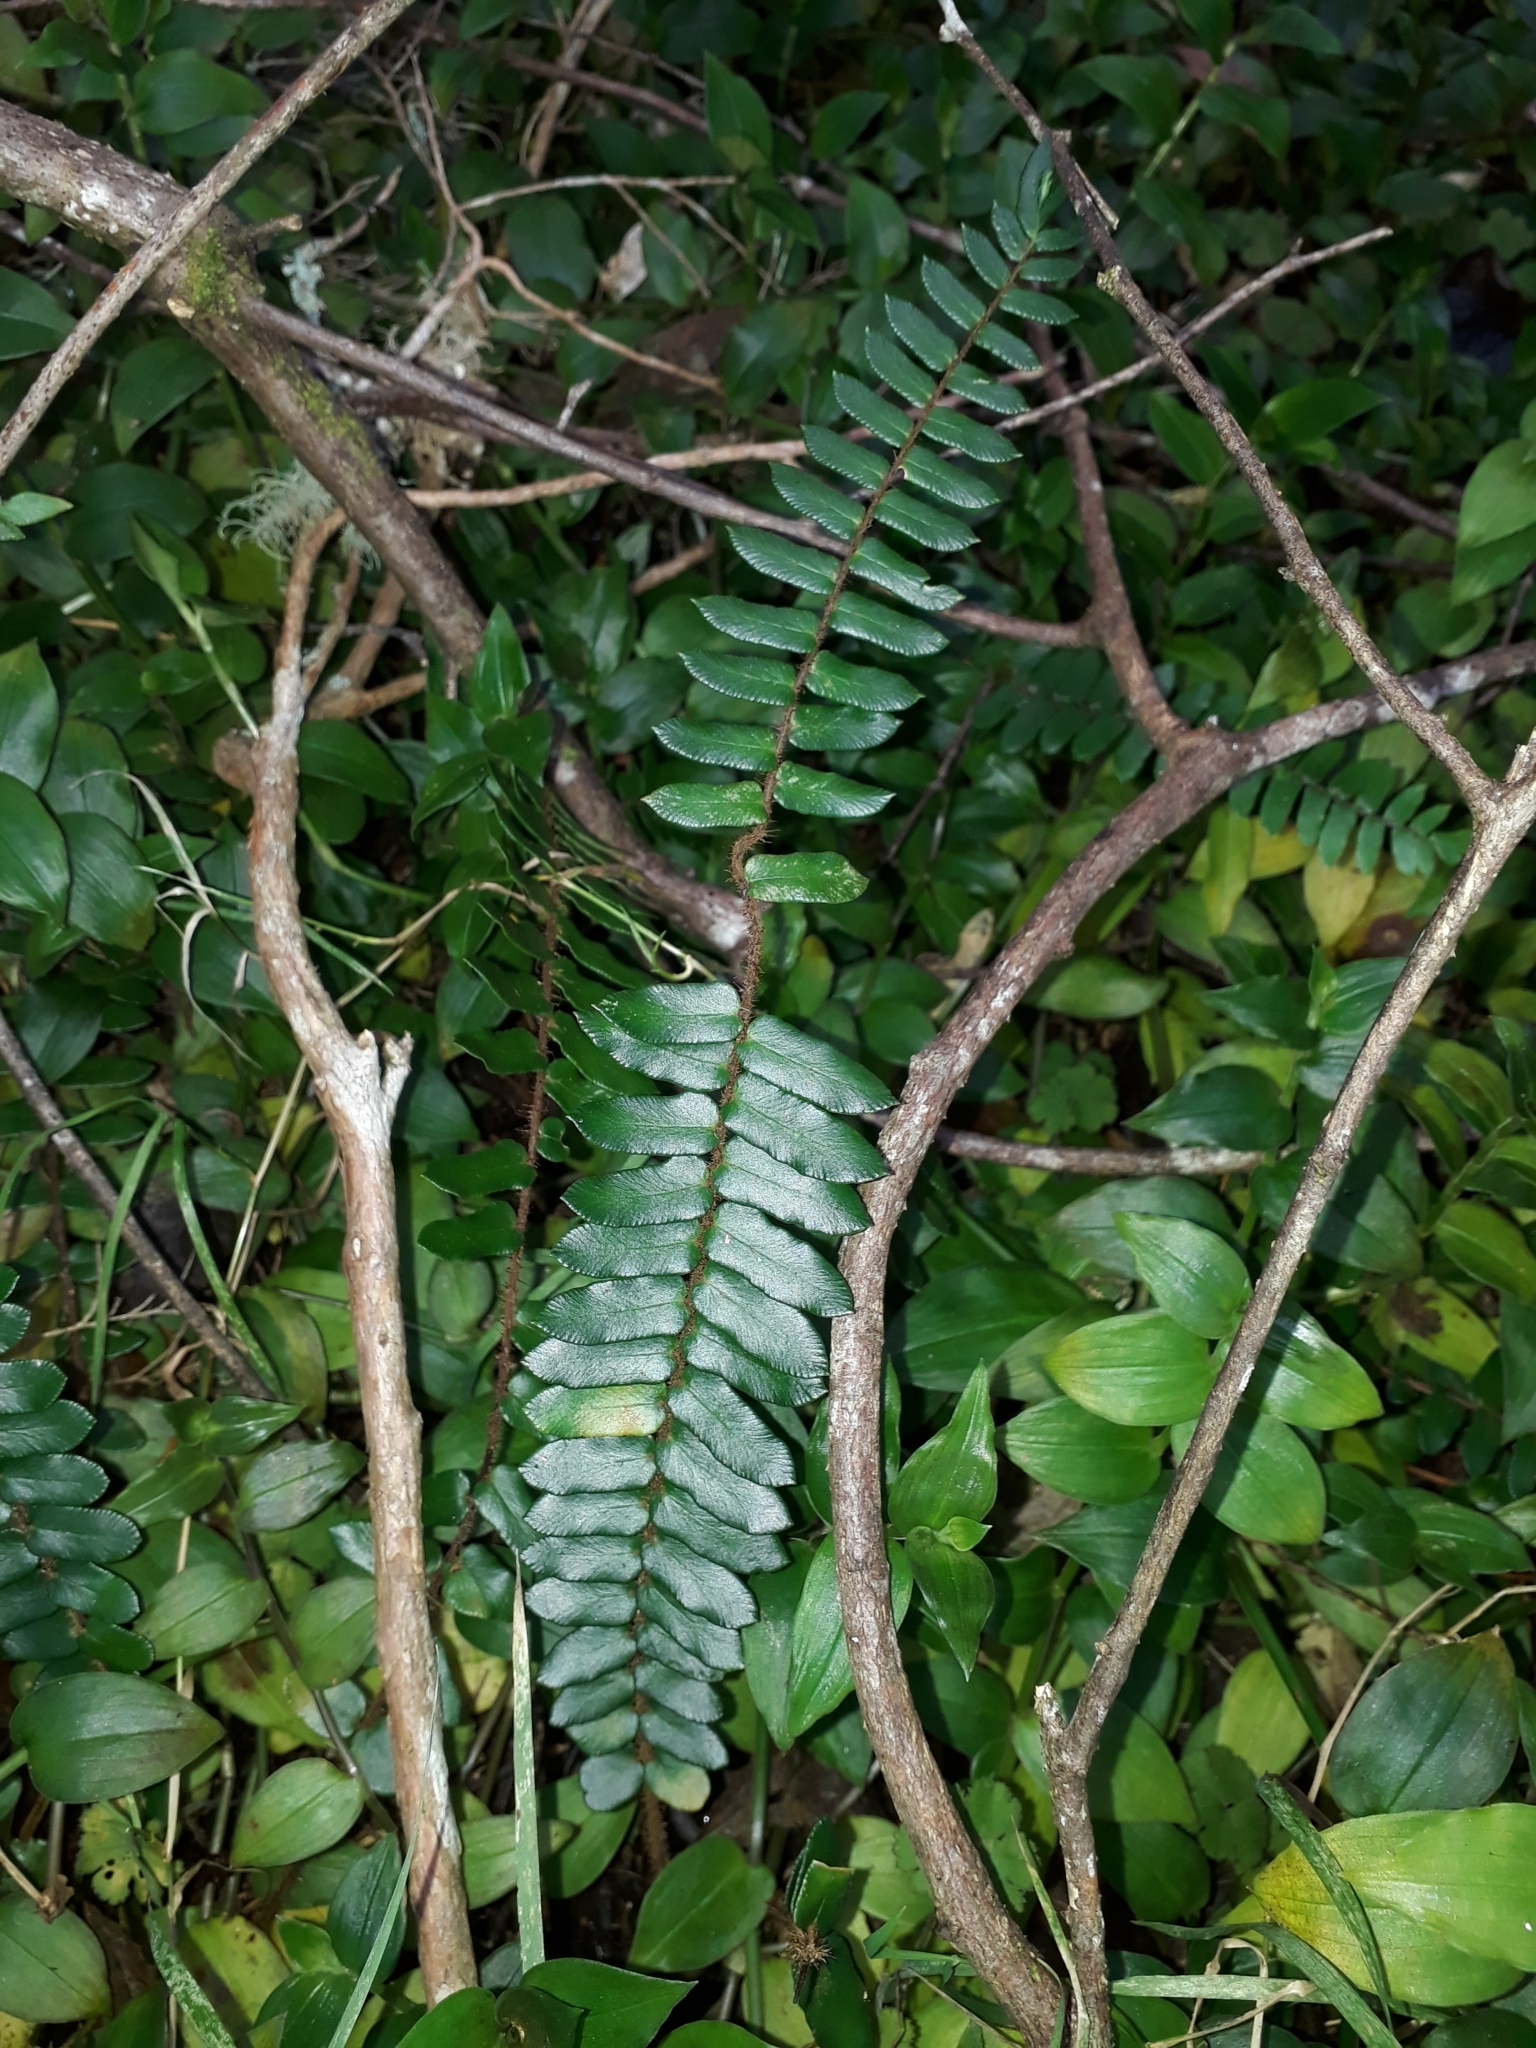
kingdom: Plantae
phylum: Tracheophyta
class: Polypodiopsida
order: Polypodiales
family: Pteridaceae
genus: Pellaea
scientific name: Pellaea rotundifolia
